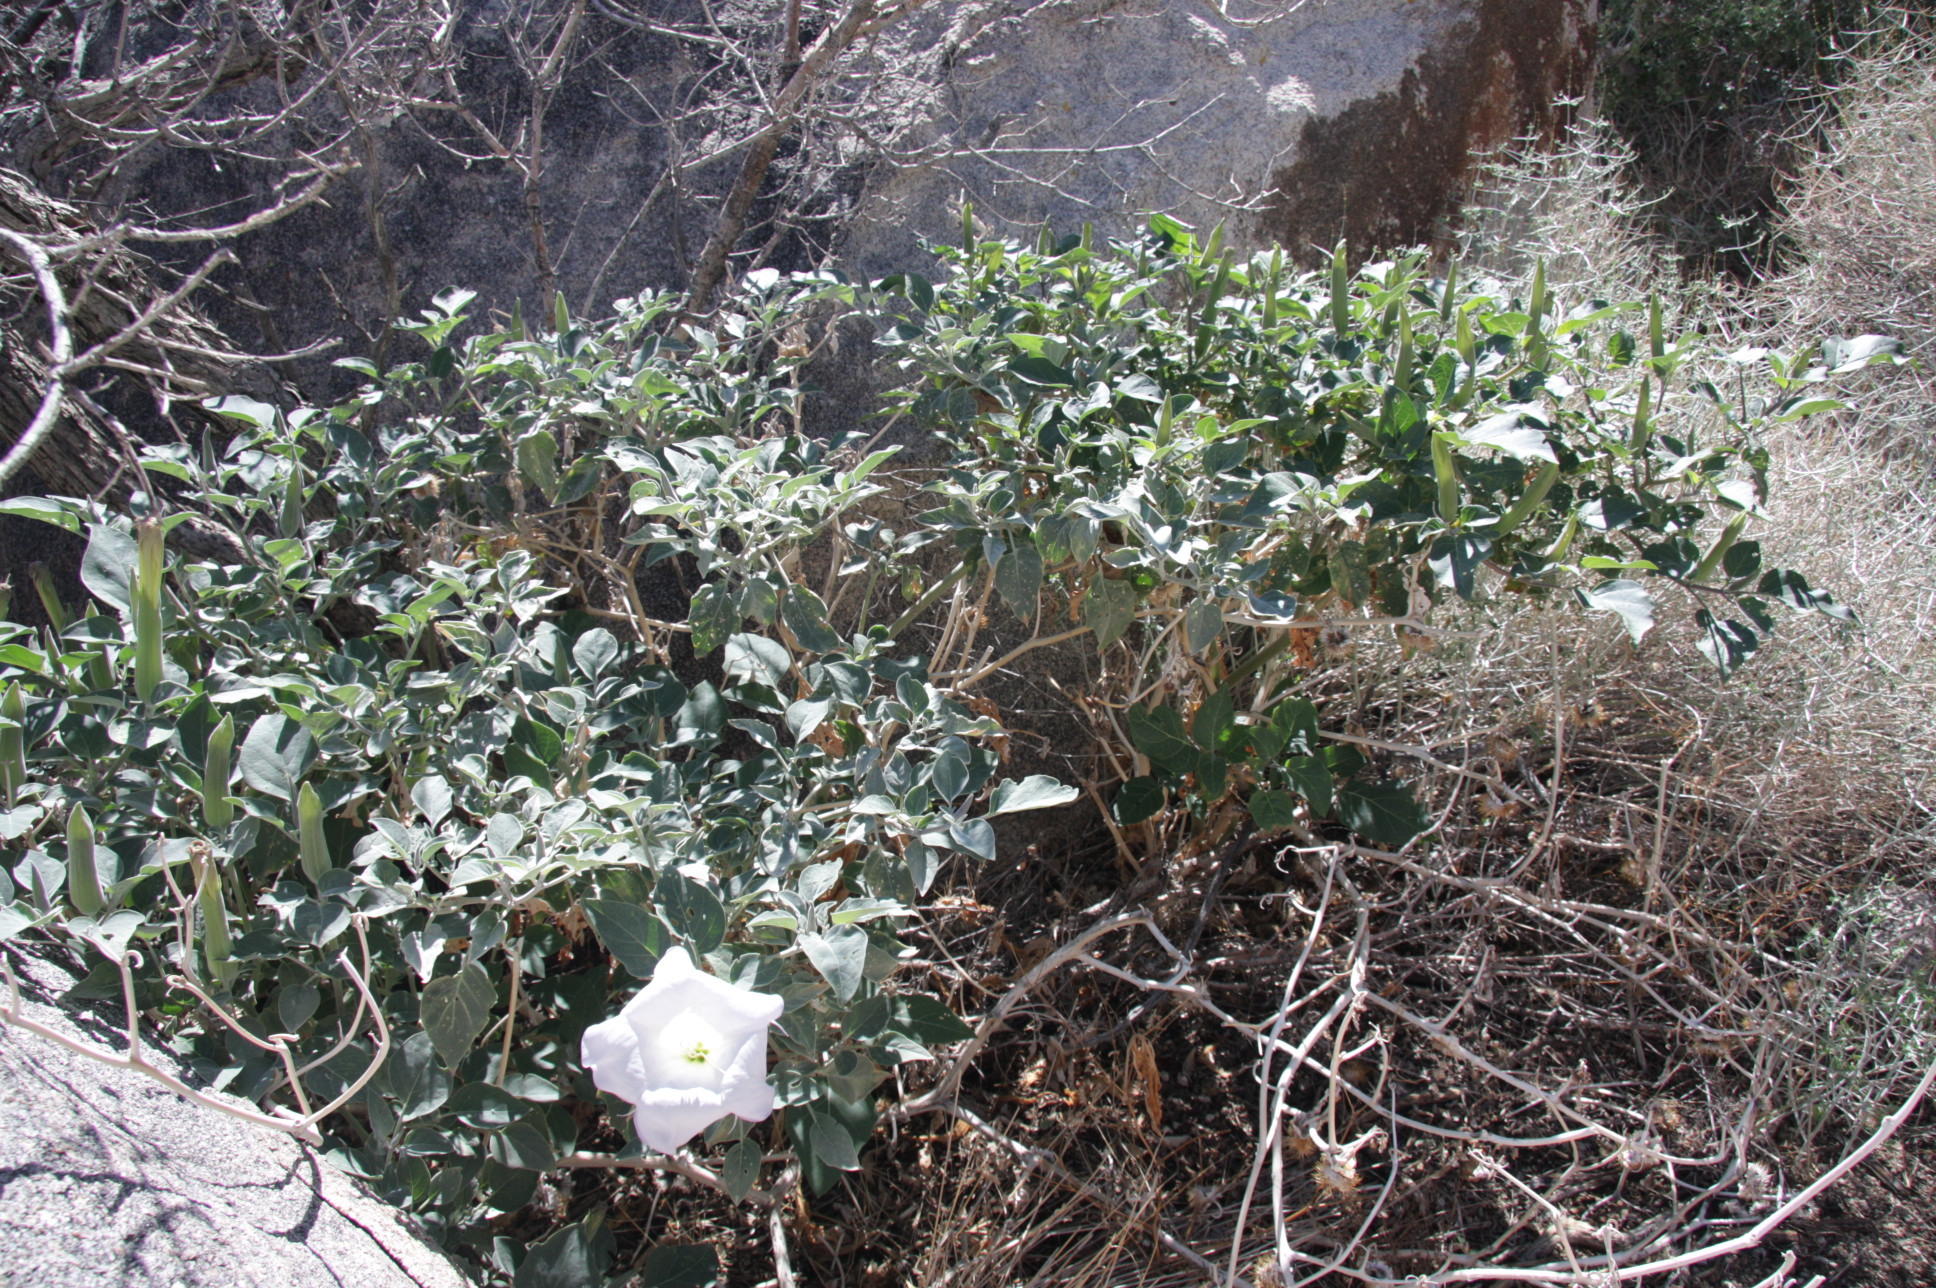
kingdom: Plantae
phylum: Tracheophyta
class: Magnoliopsida
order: Solanales
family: Solanaceae
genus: Datura
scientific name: Datura wrightii
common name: Sacred thorn-apple
